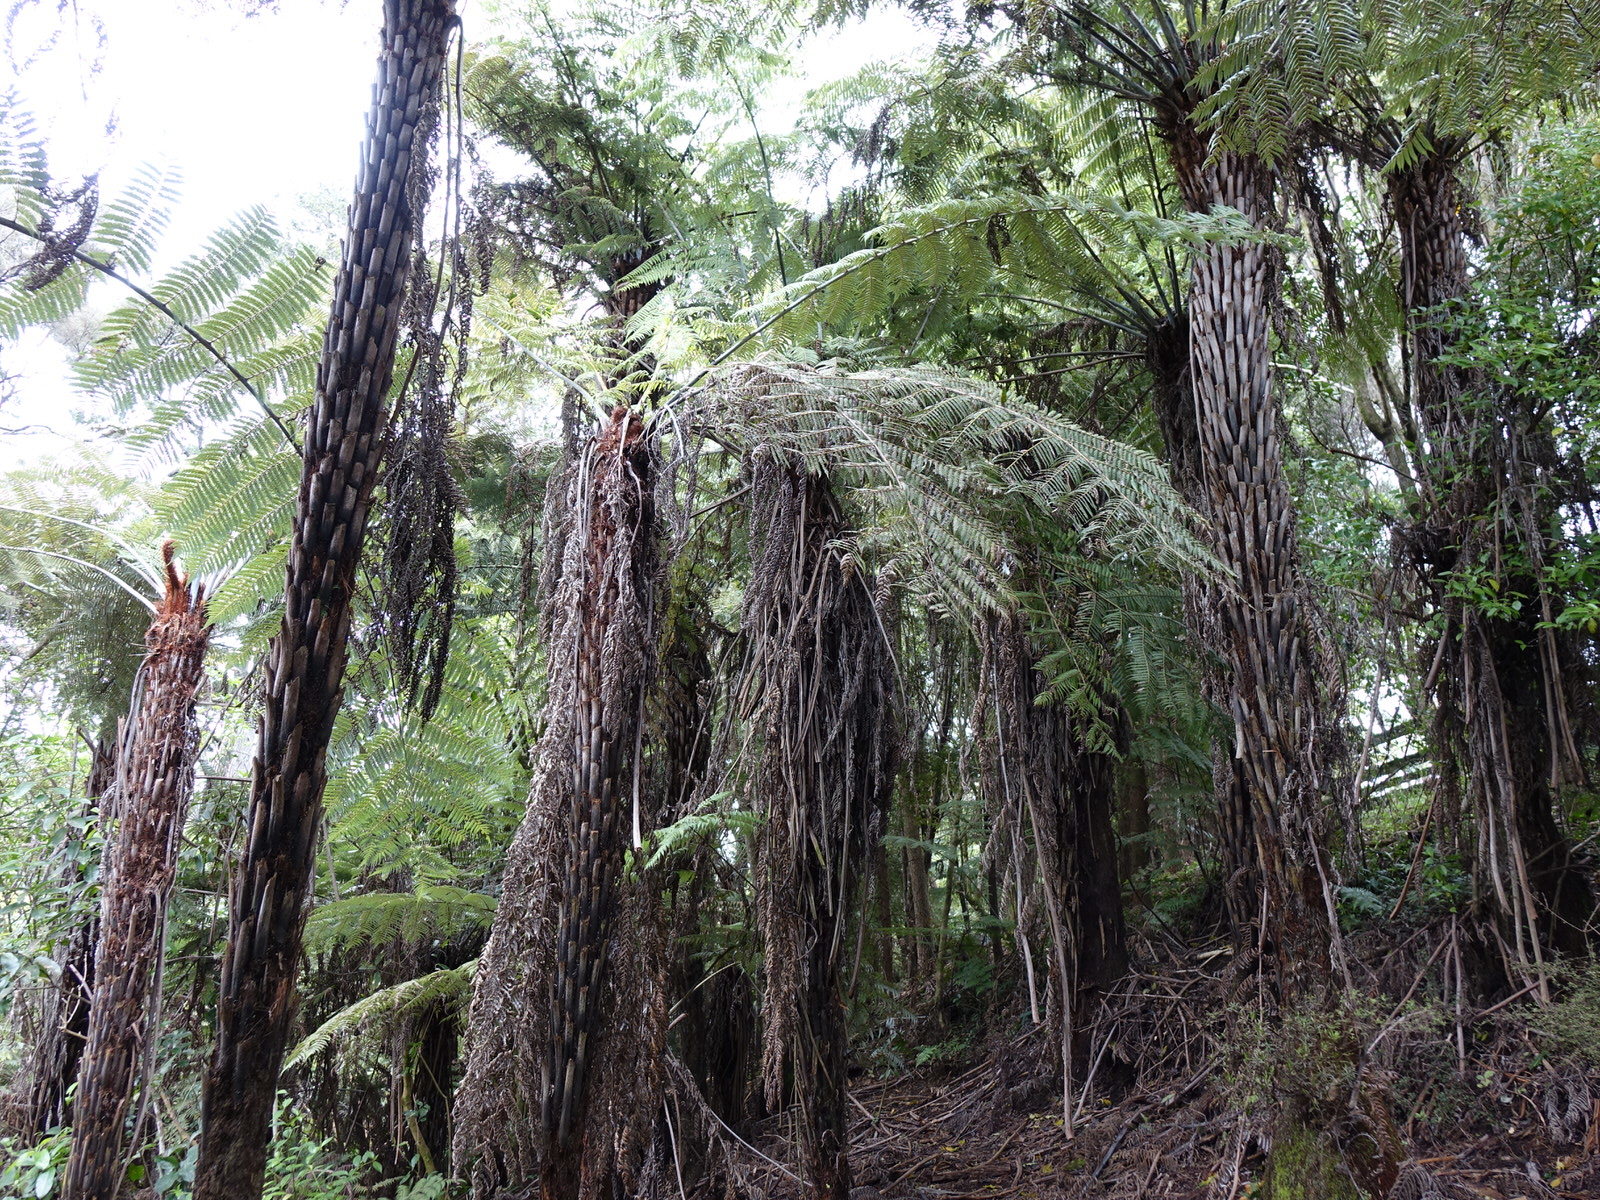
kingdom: Plantae
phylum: Tracheophyta
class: Polypodiopsida
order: Cyatheales
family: Cyatheaceae
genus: Alsophila
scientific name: Alsophila dealbata
